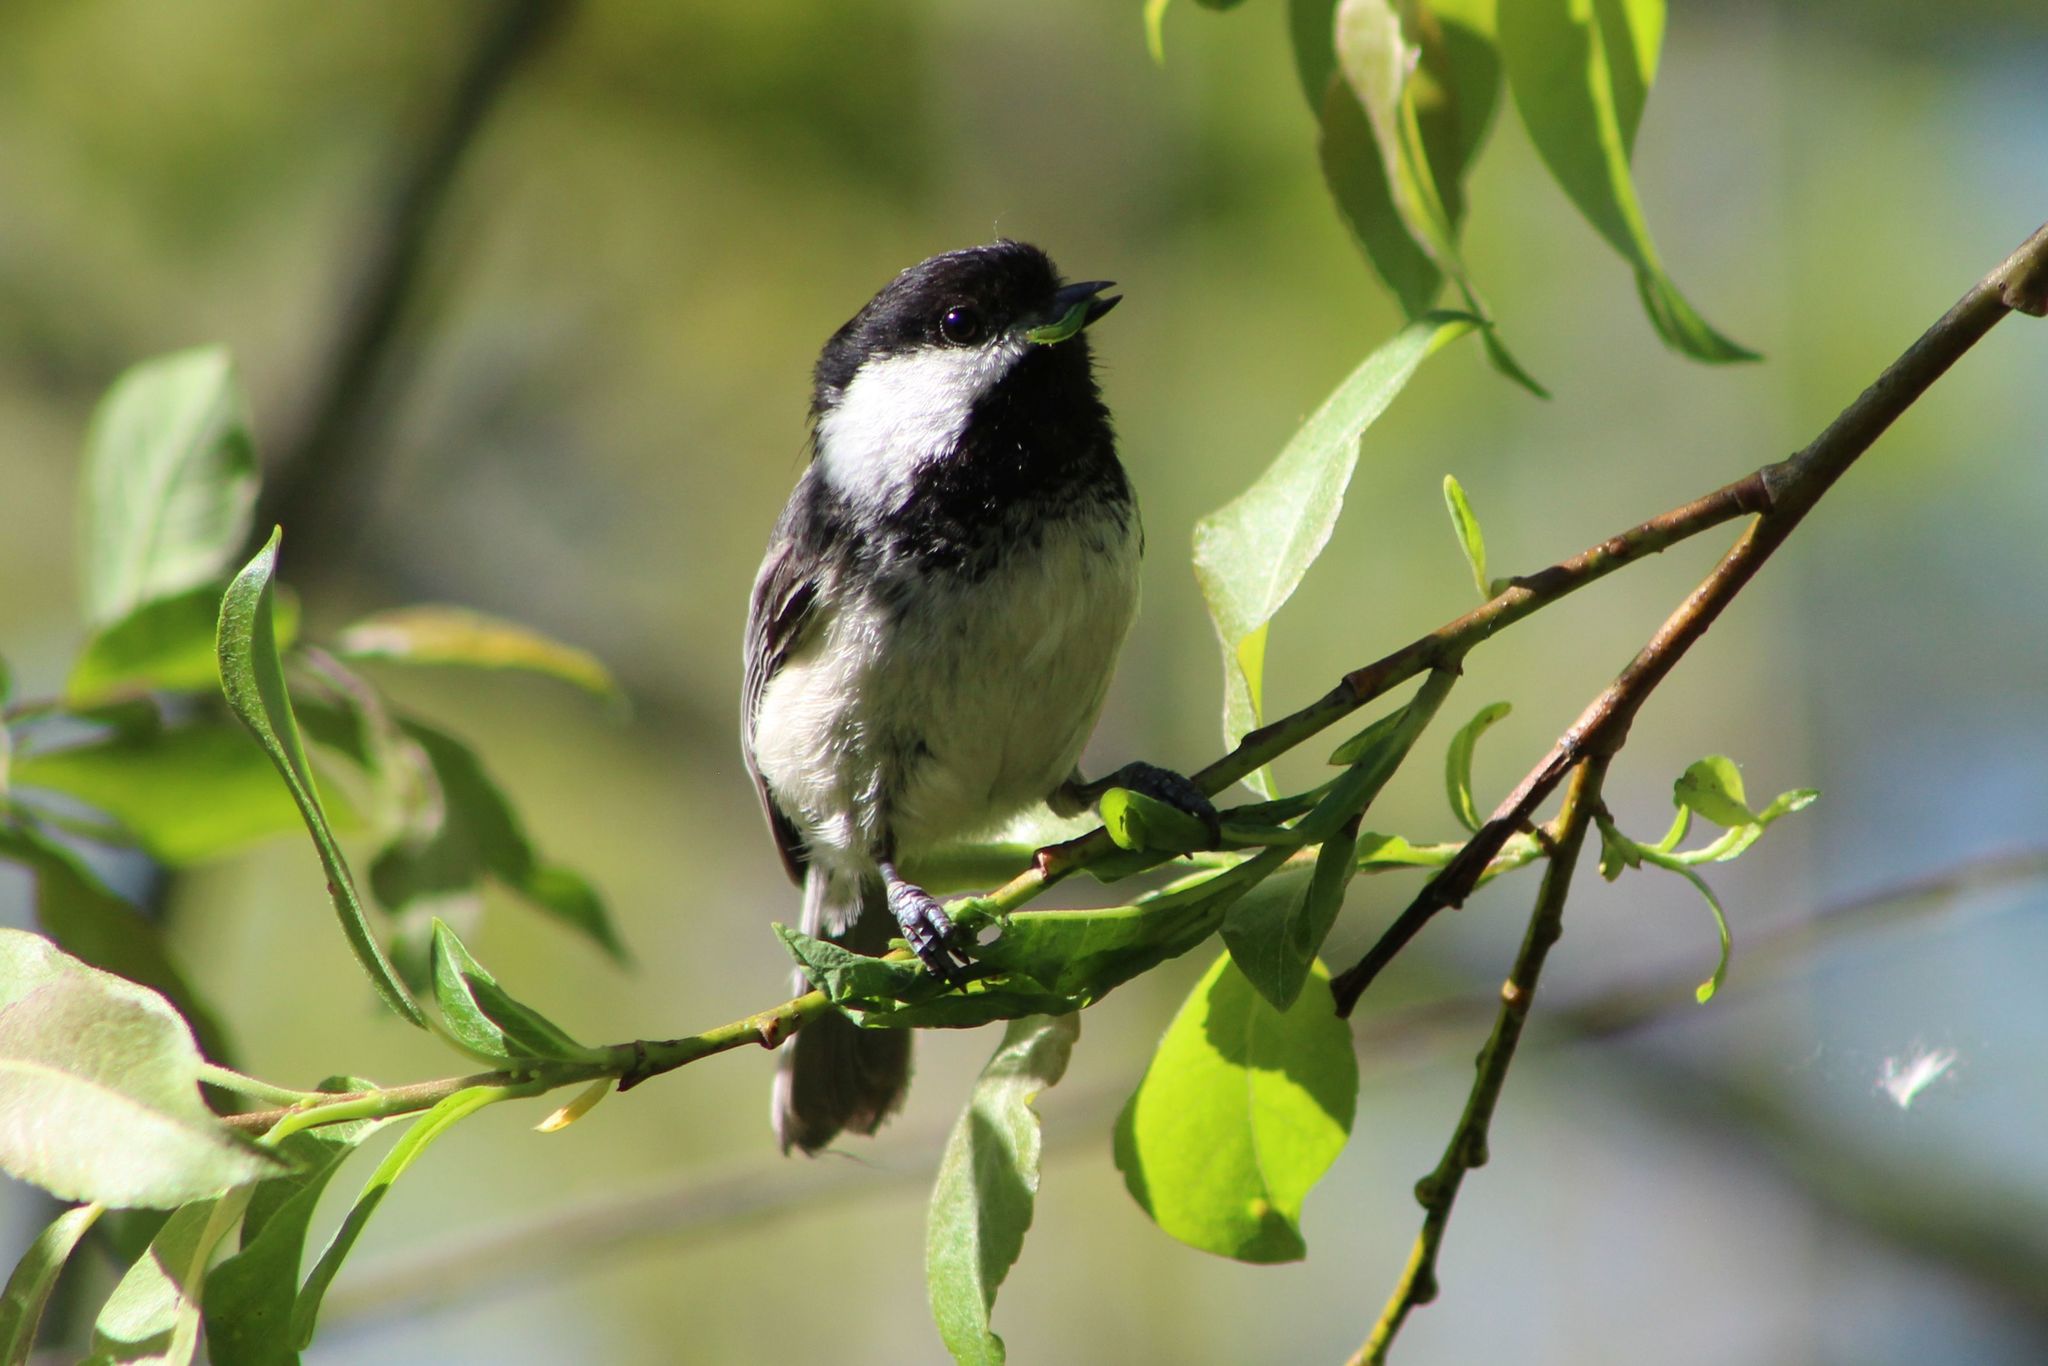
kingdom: Animalia
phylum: Chordata
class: Aves
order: Passeriformes
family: Paridae
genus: Poecile
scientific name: Poecile atricapillus
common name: Black-capped chickadee
